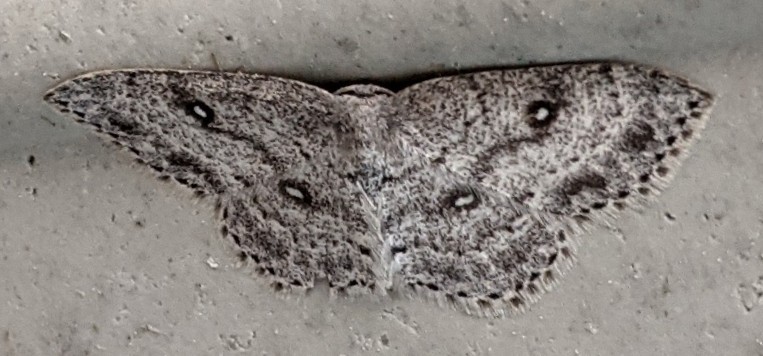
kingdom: Animalia
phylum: Arthropoda
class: Insecta
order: Lepidoptera
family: Geometridae
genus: Cyclophora
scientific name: Cyclophora pendulinaria
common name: Sweet fern geometer
